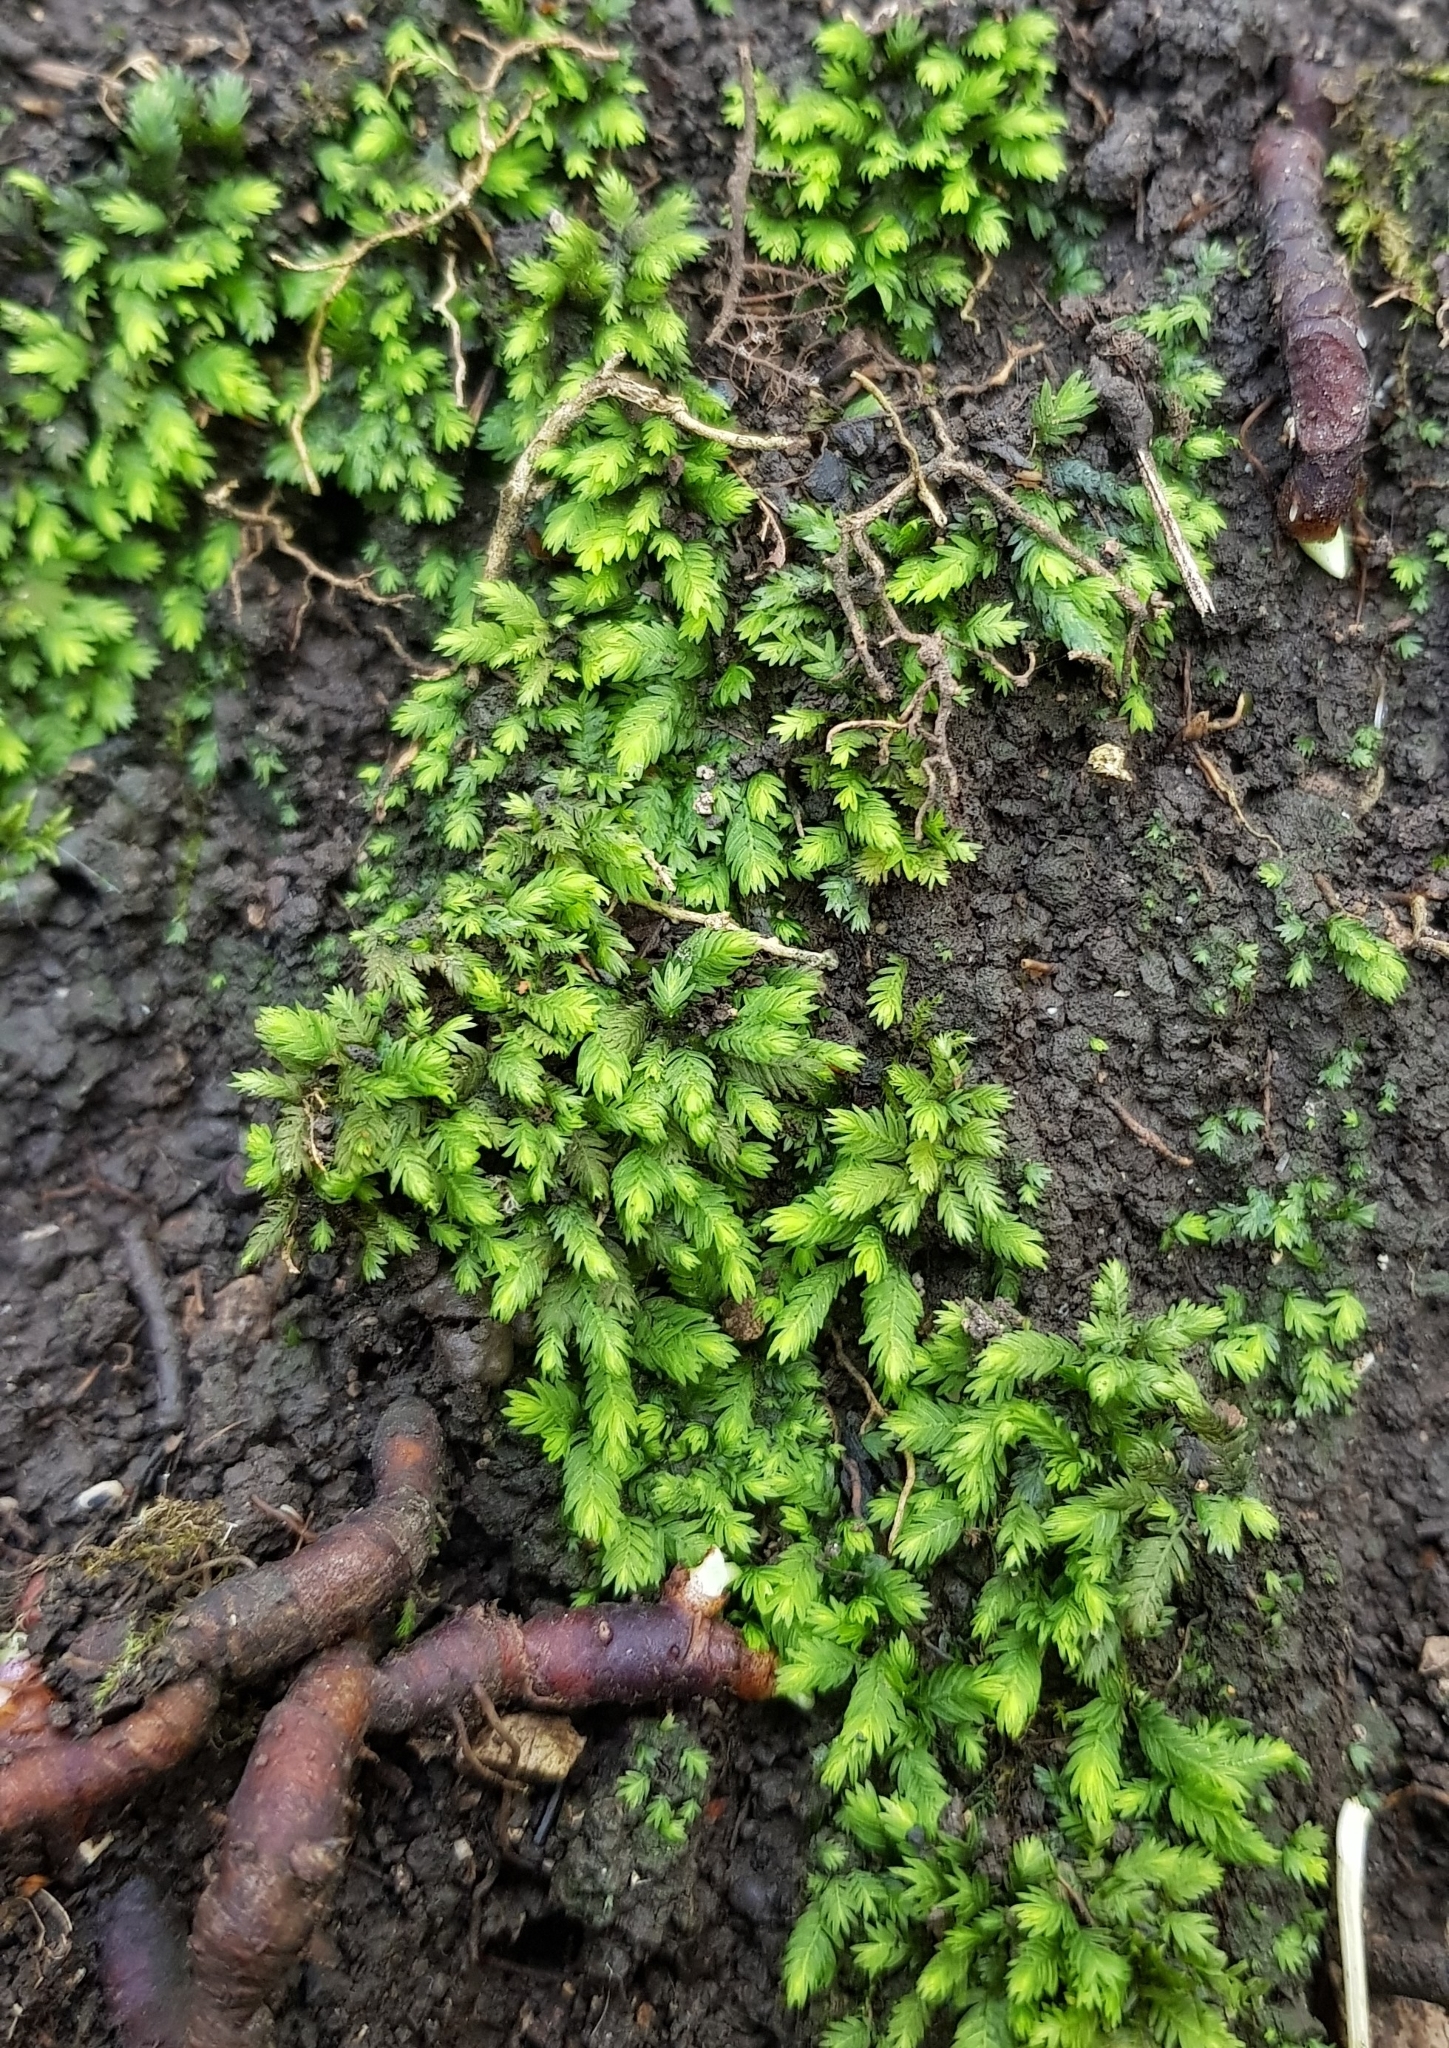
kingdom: Plantae
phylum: Bryophyta
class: Bryopsida
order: Dicranales
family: Fissidentaceae
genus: Fissidens
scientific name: Fissidens taxifolius
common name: Yew-leaved pocket moss
